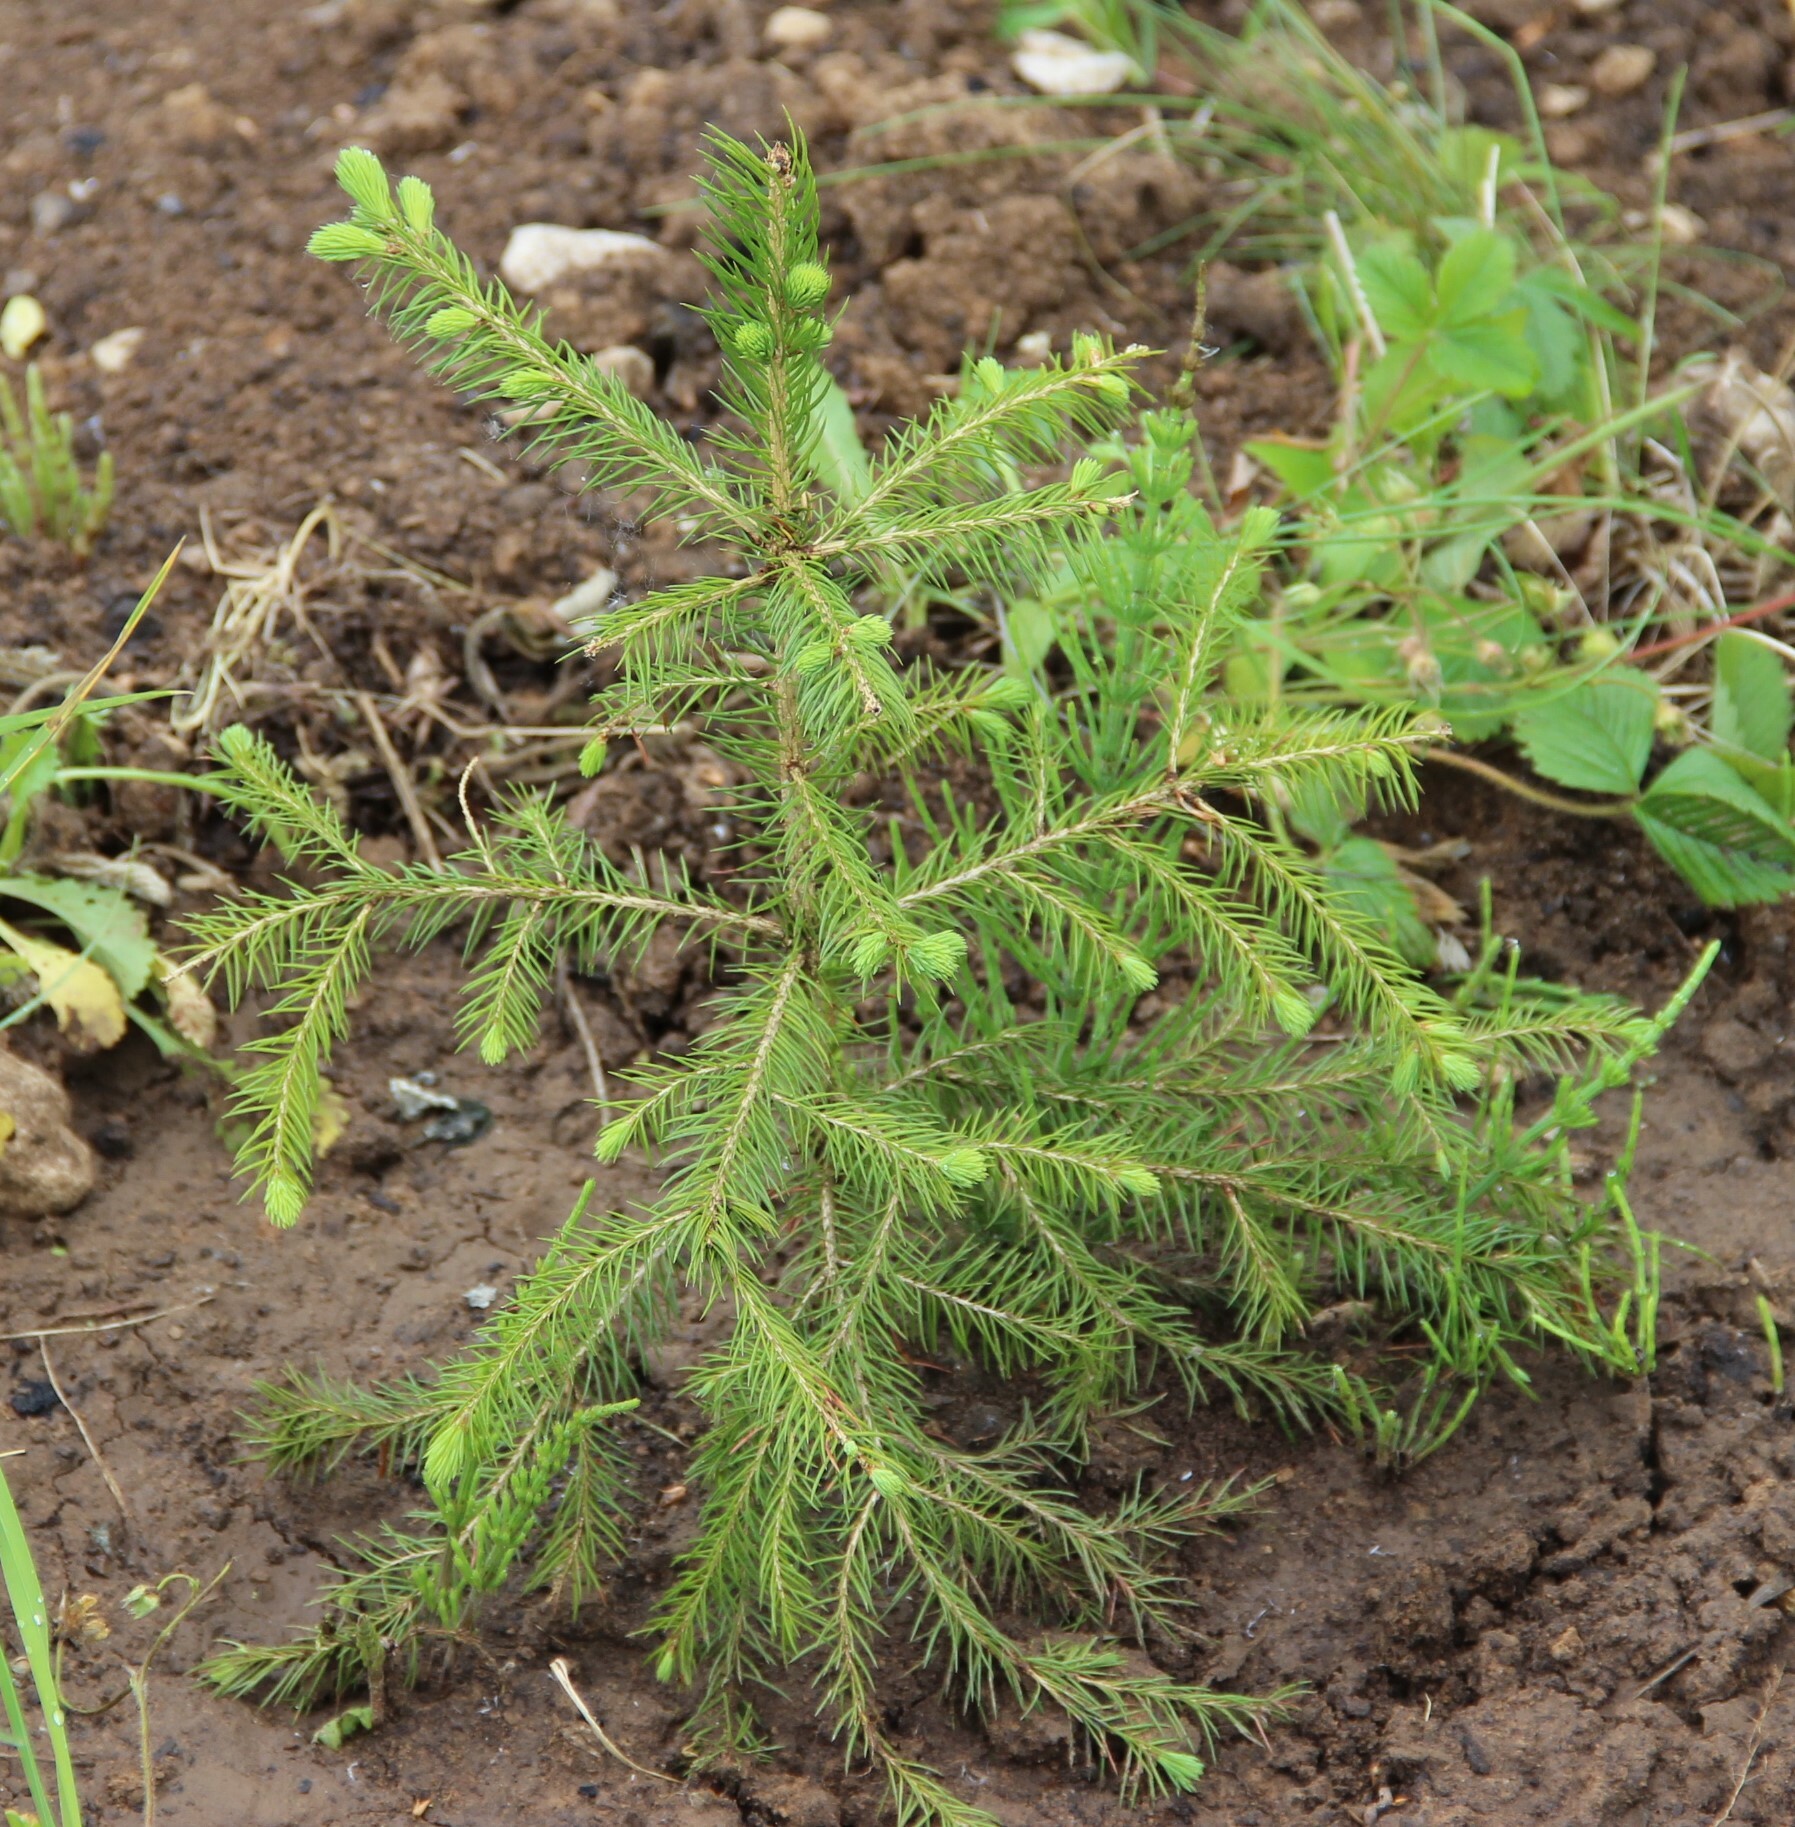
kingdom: Plantae
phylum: Tracheophyta
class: Pinopsida
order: Pinales
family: Pinaceae
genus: Picea
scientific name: Picea abies
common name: Norway spruce
